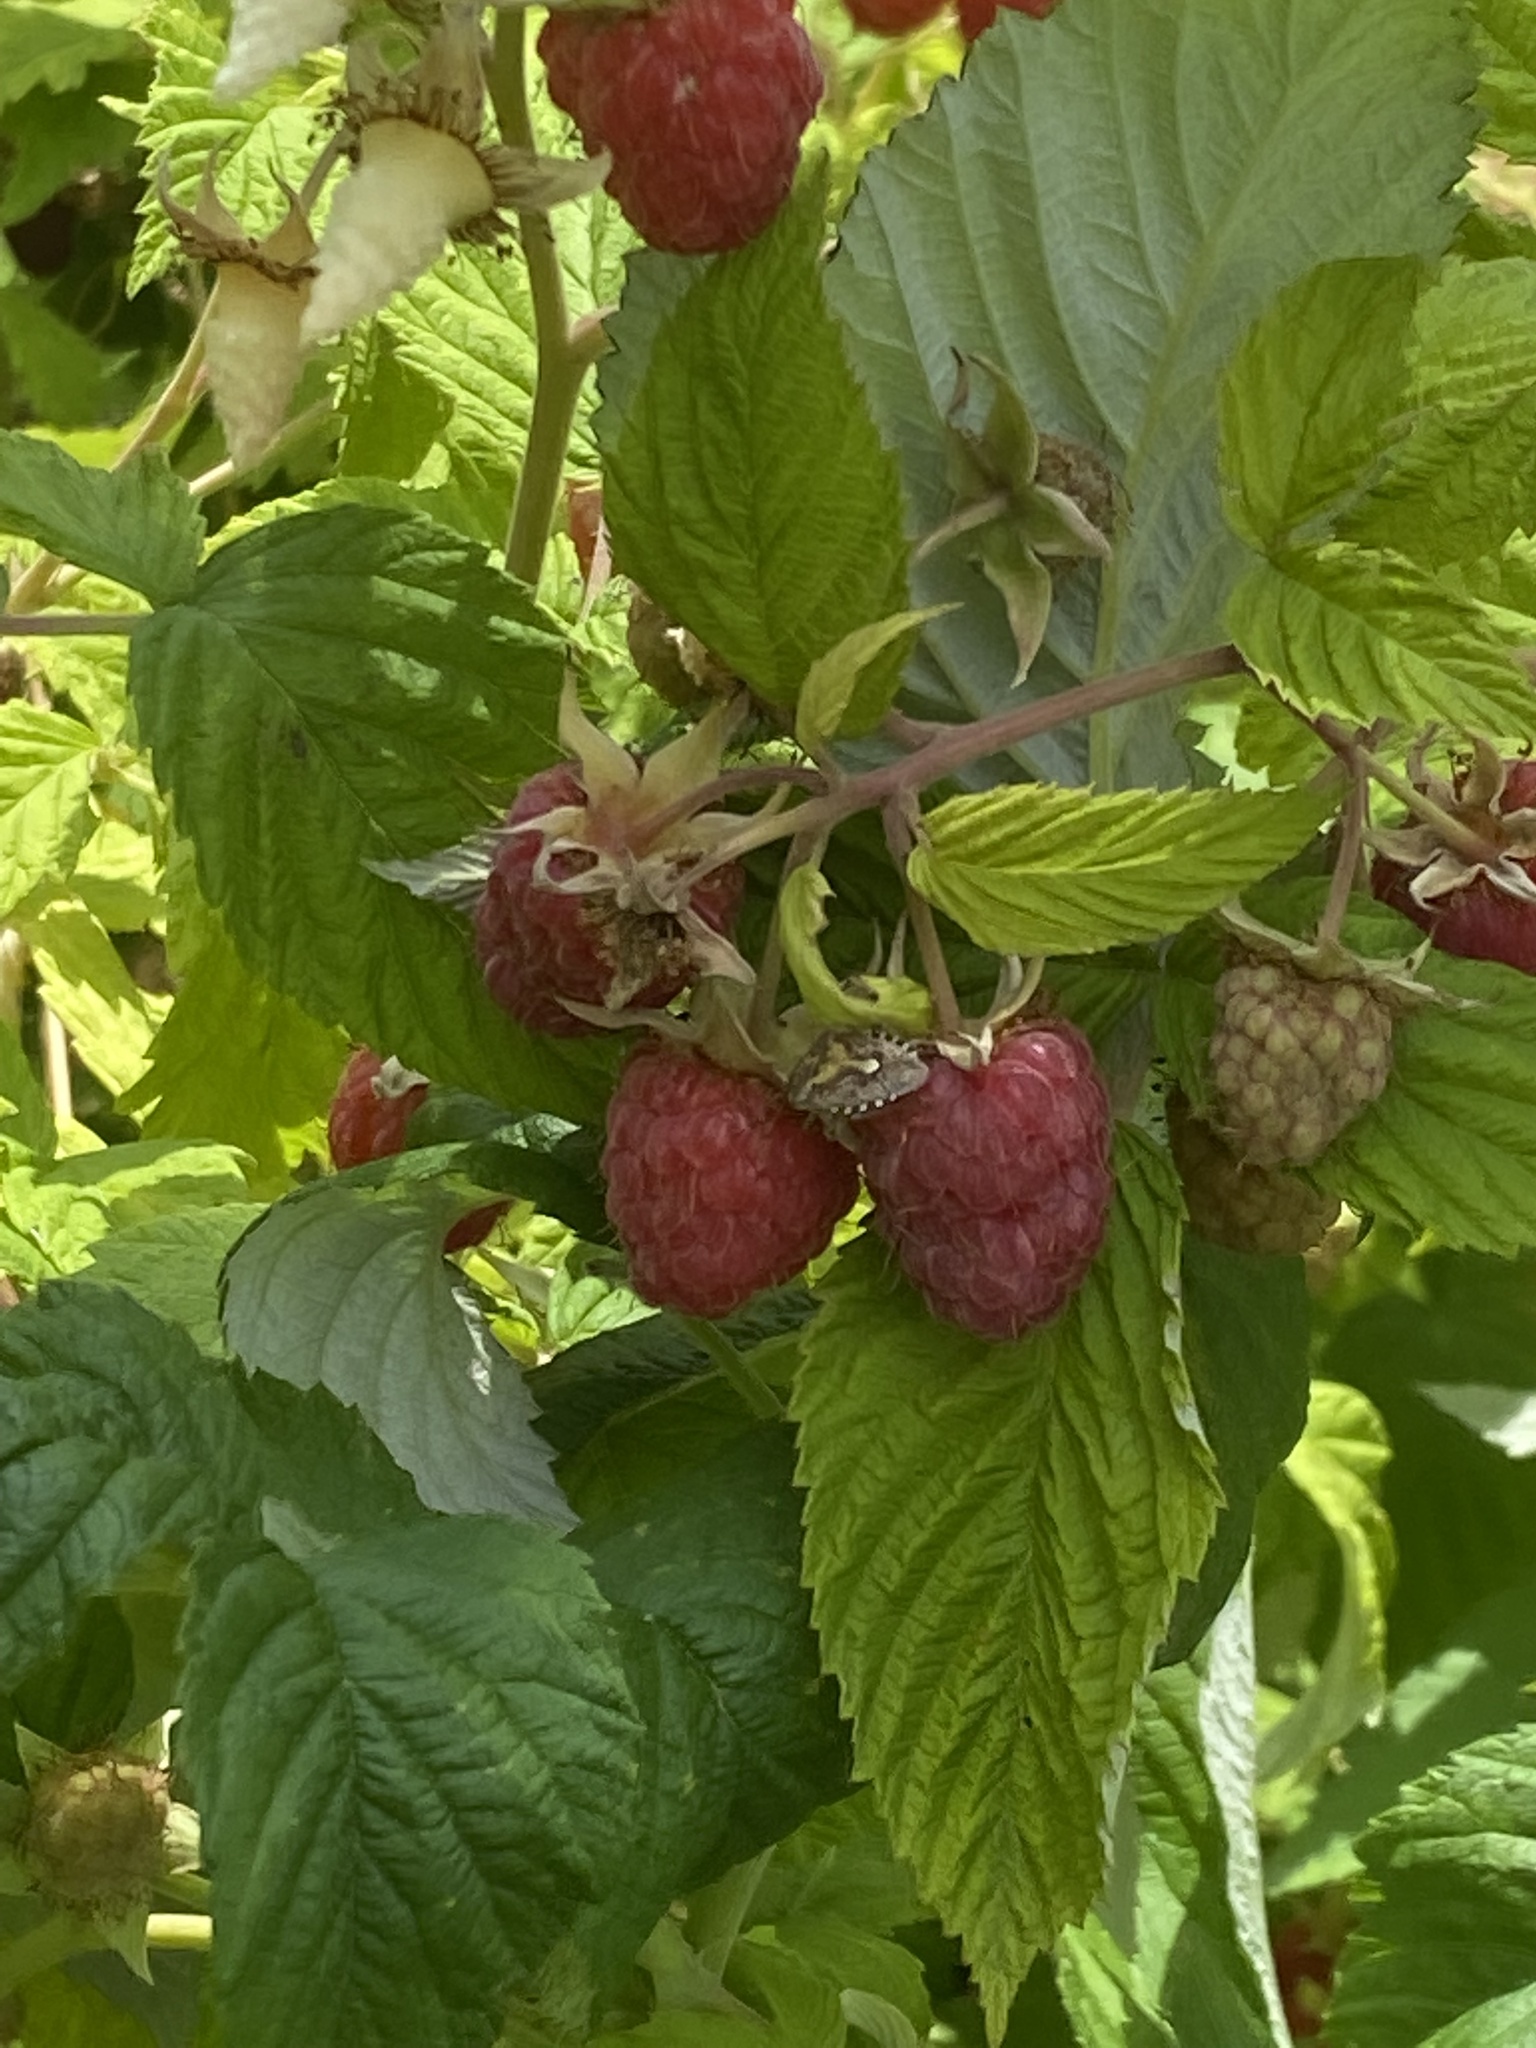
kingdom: Animalia
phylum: Arthropoda
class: Insecta
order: Hemiptera
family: Pentatomidae
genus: Dolycoris
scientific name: Dolycoris baccarum
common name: Sloe bug
